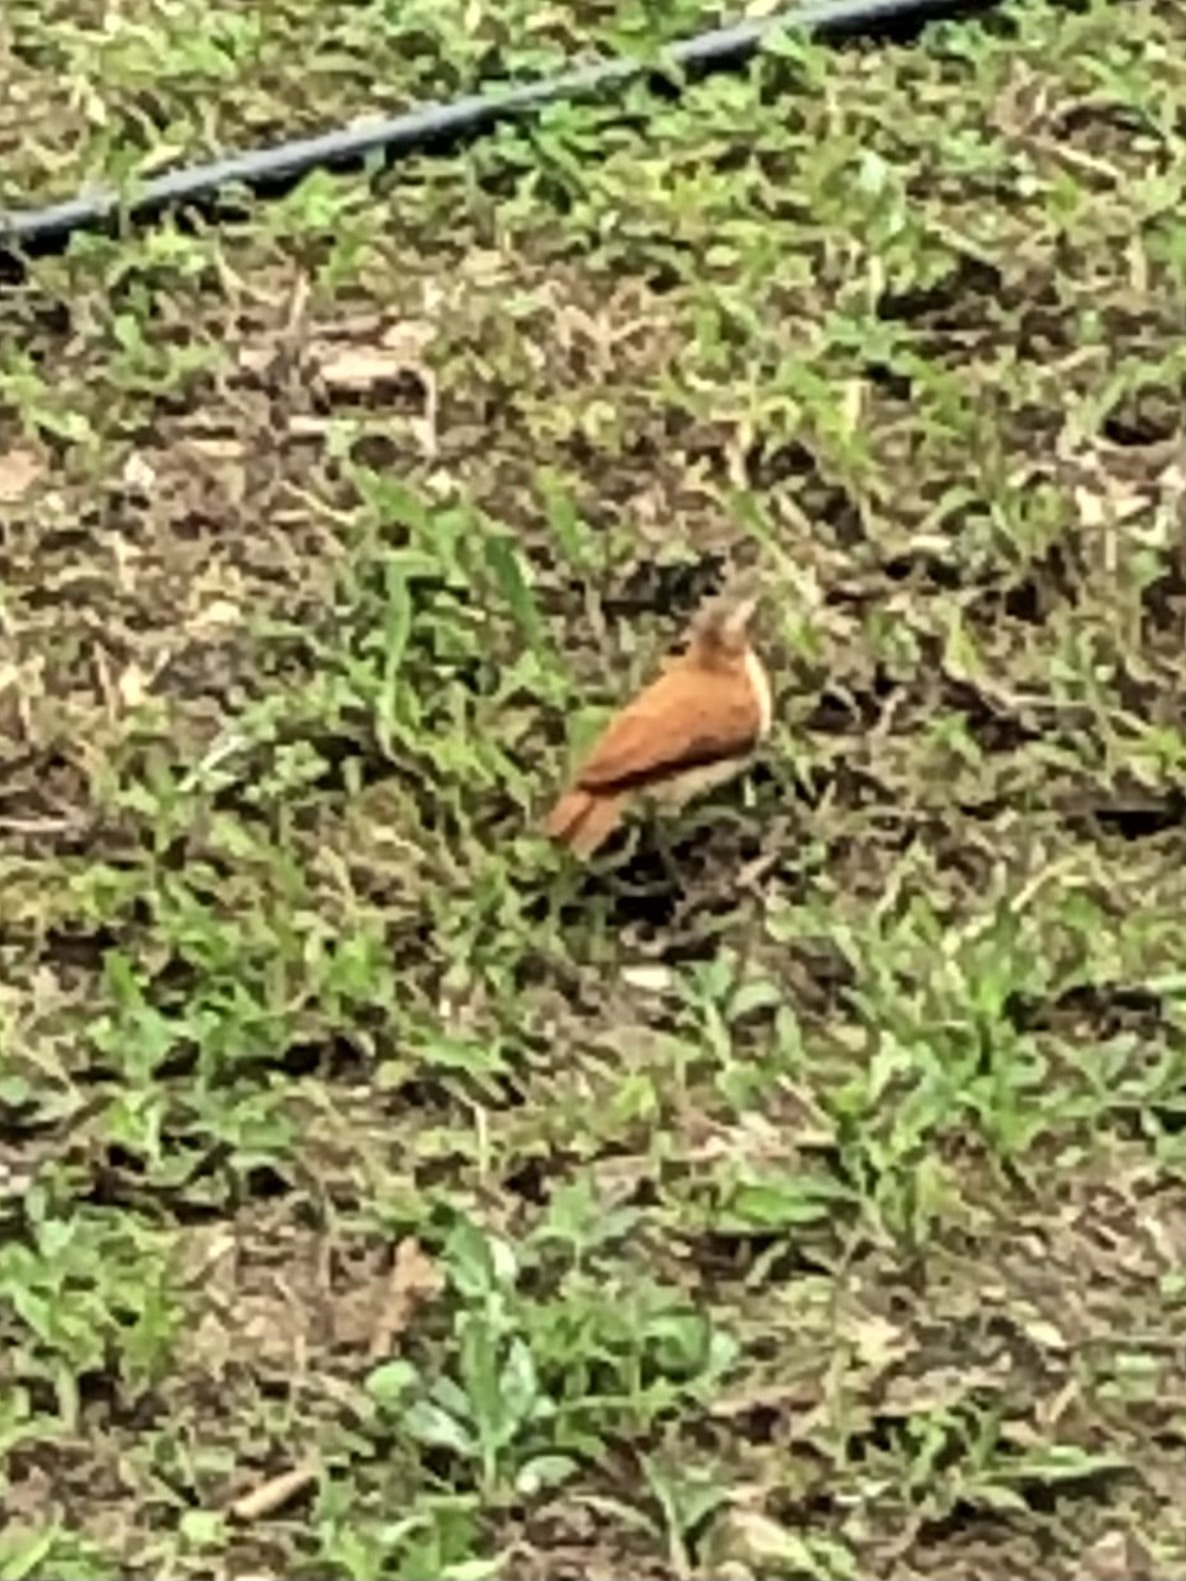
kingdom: Animalia
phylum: Chordata
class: Aves
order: Passeriformes
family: Furnariidae
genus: Furnarius
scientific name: Furnarius leucopus
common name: Pale-legged hornero
